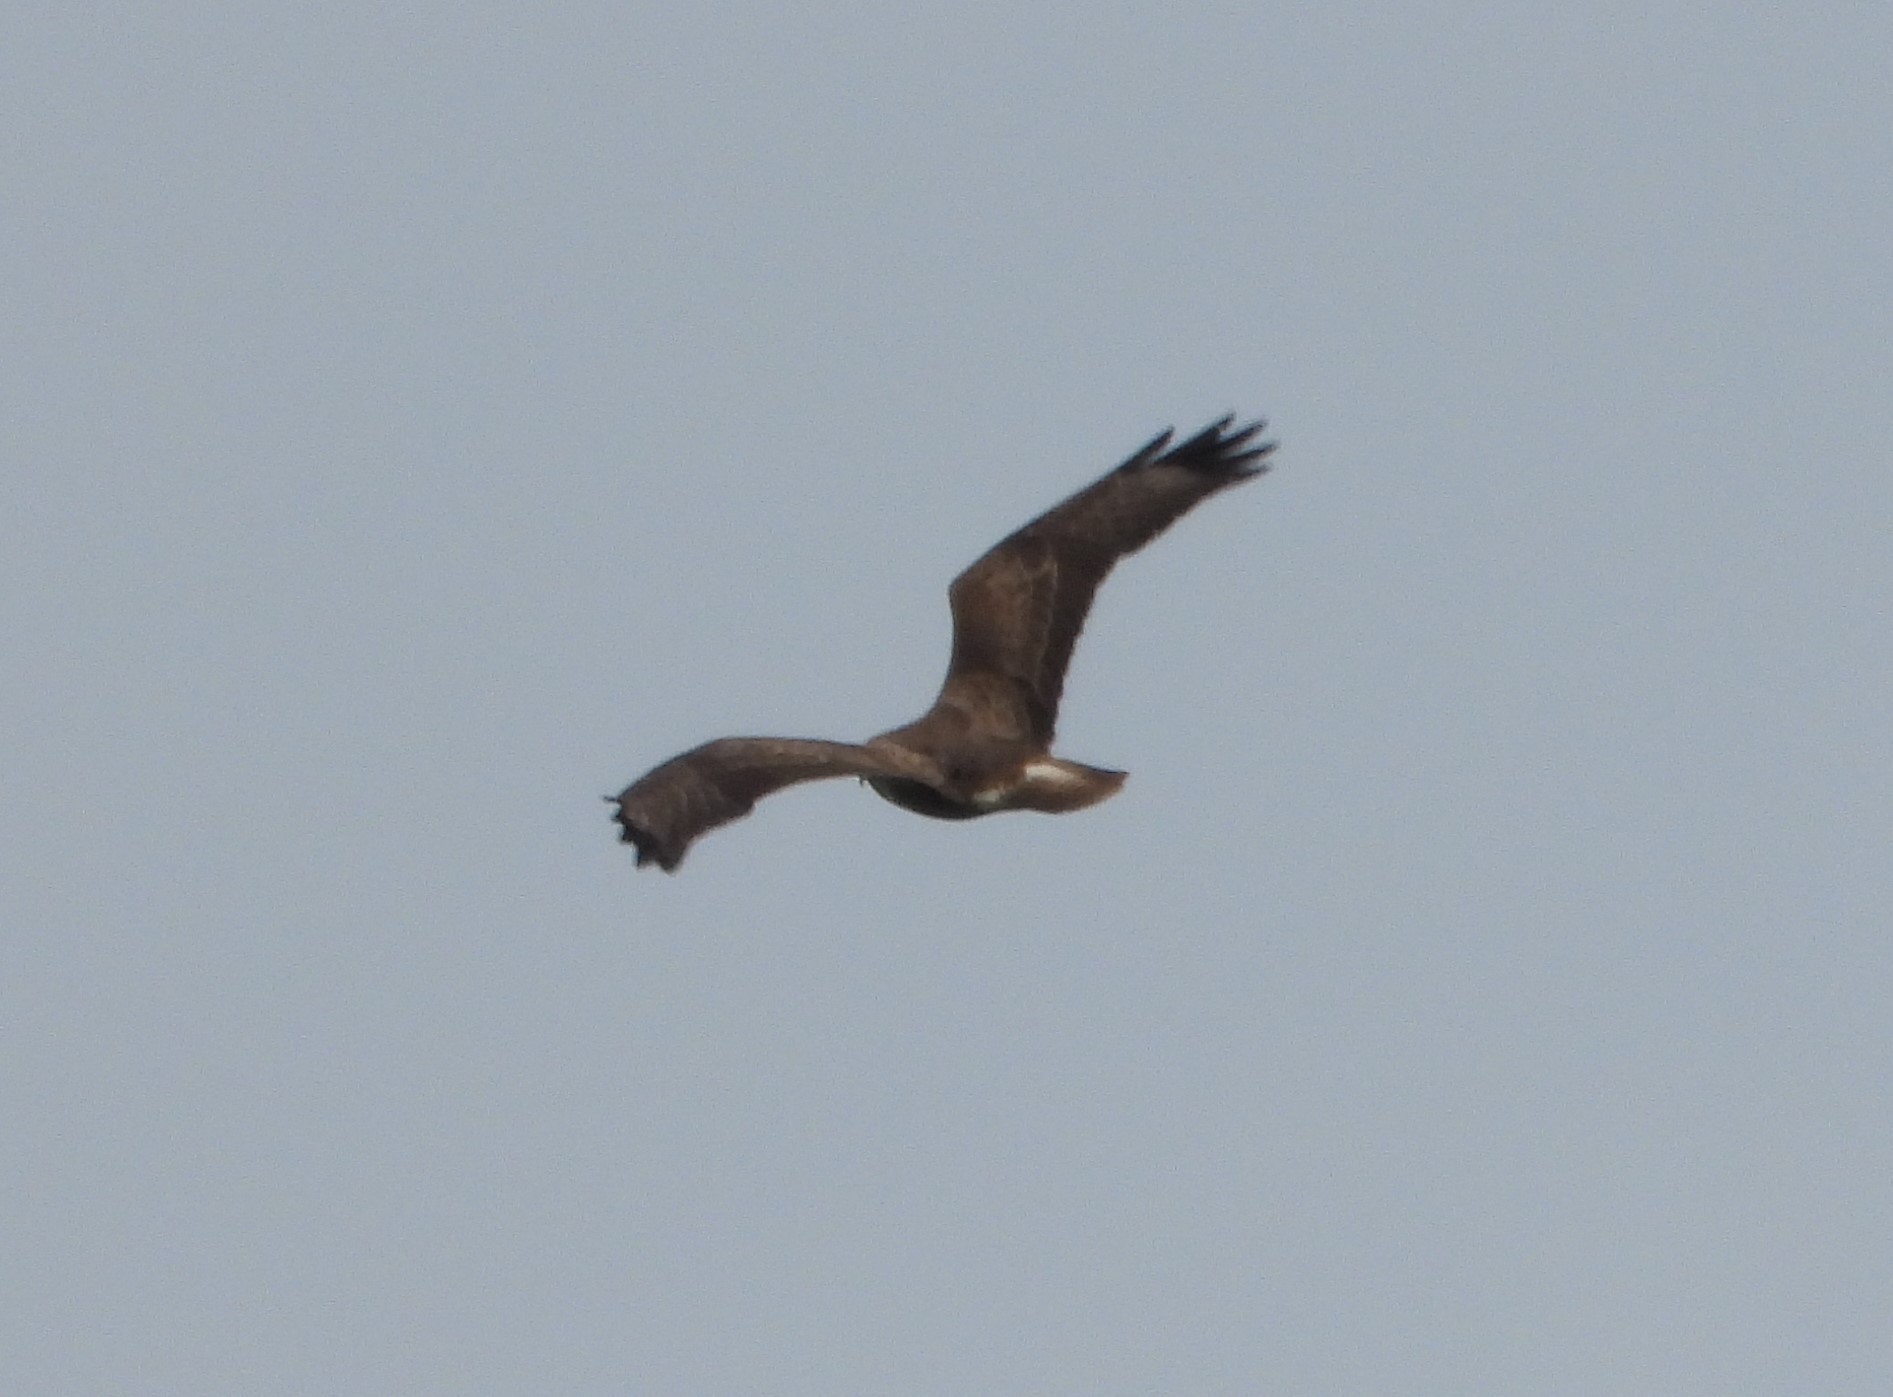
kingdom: Animalia
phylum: Chordata
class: Aves
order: Accipitriformes
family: Accipitridae
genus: Buteo
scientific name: Buteo buteo
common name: Common buzzard
